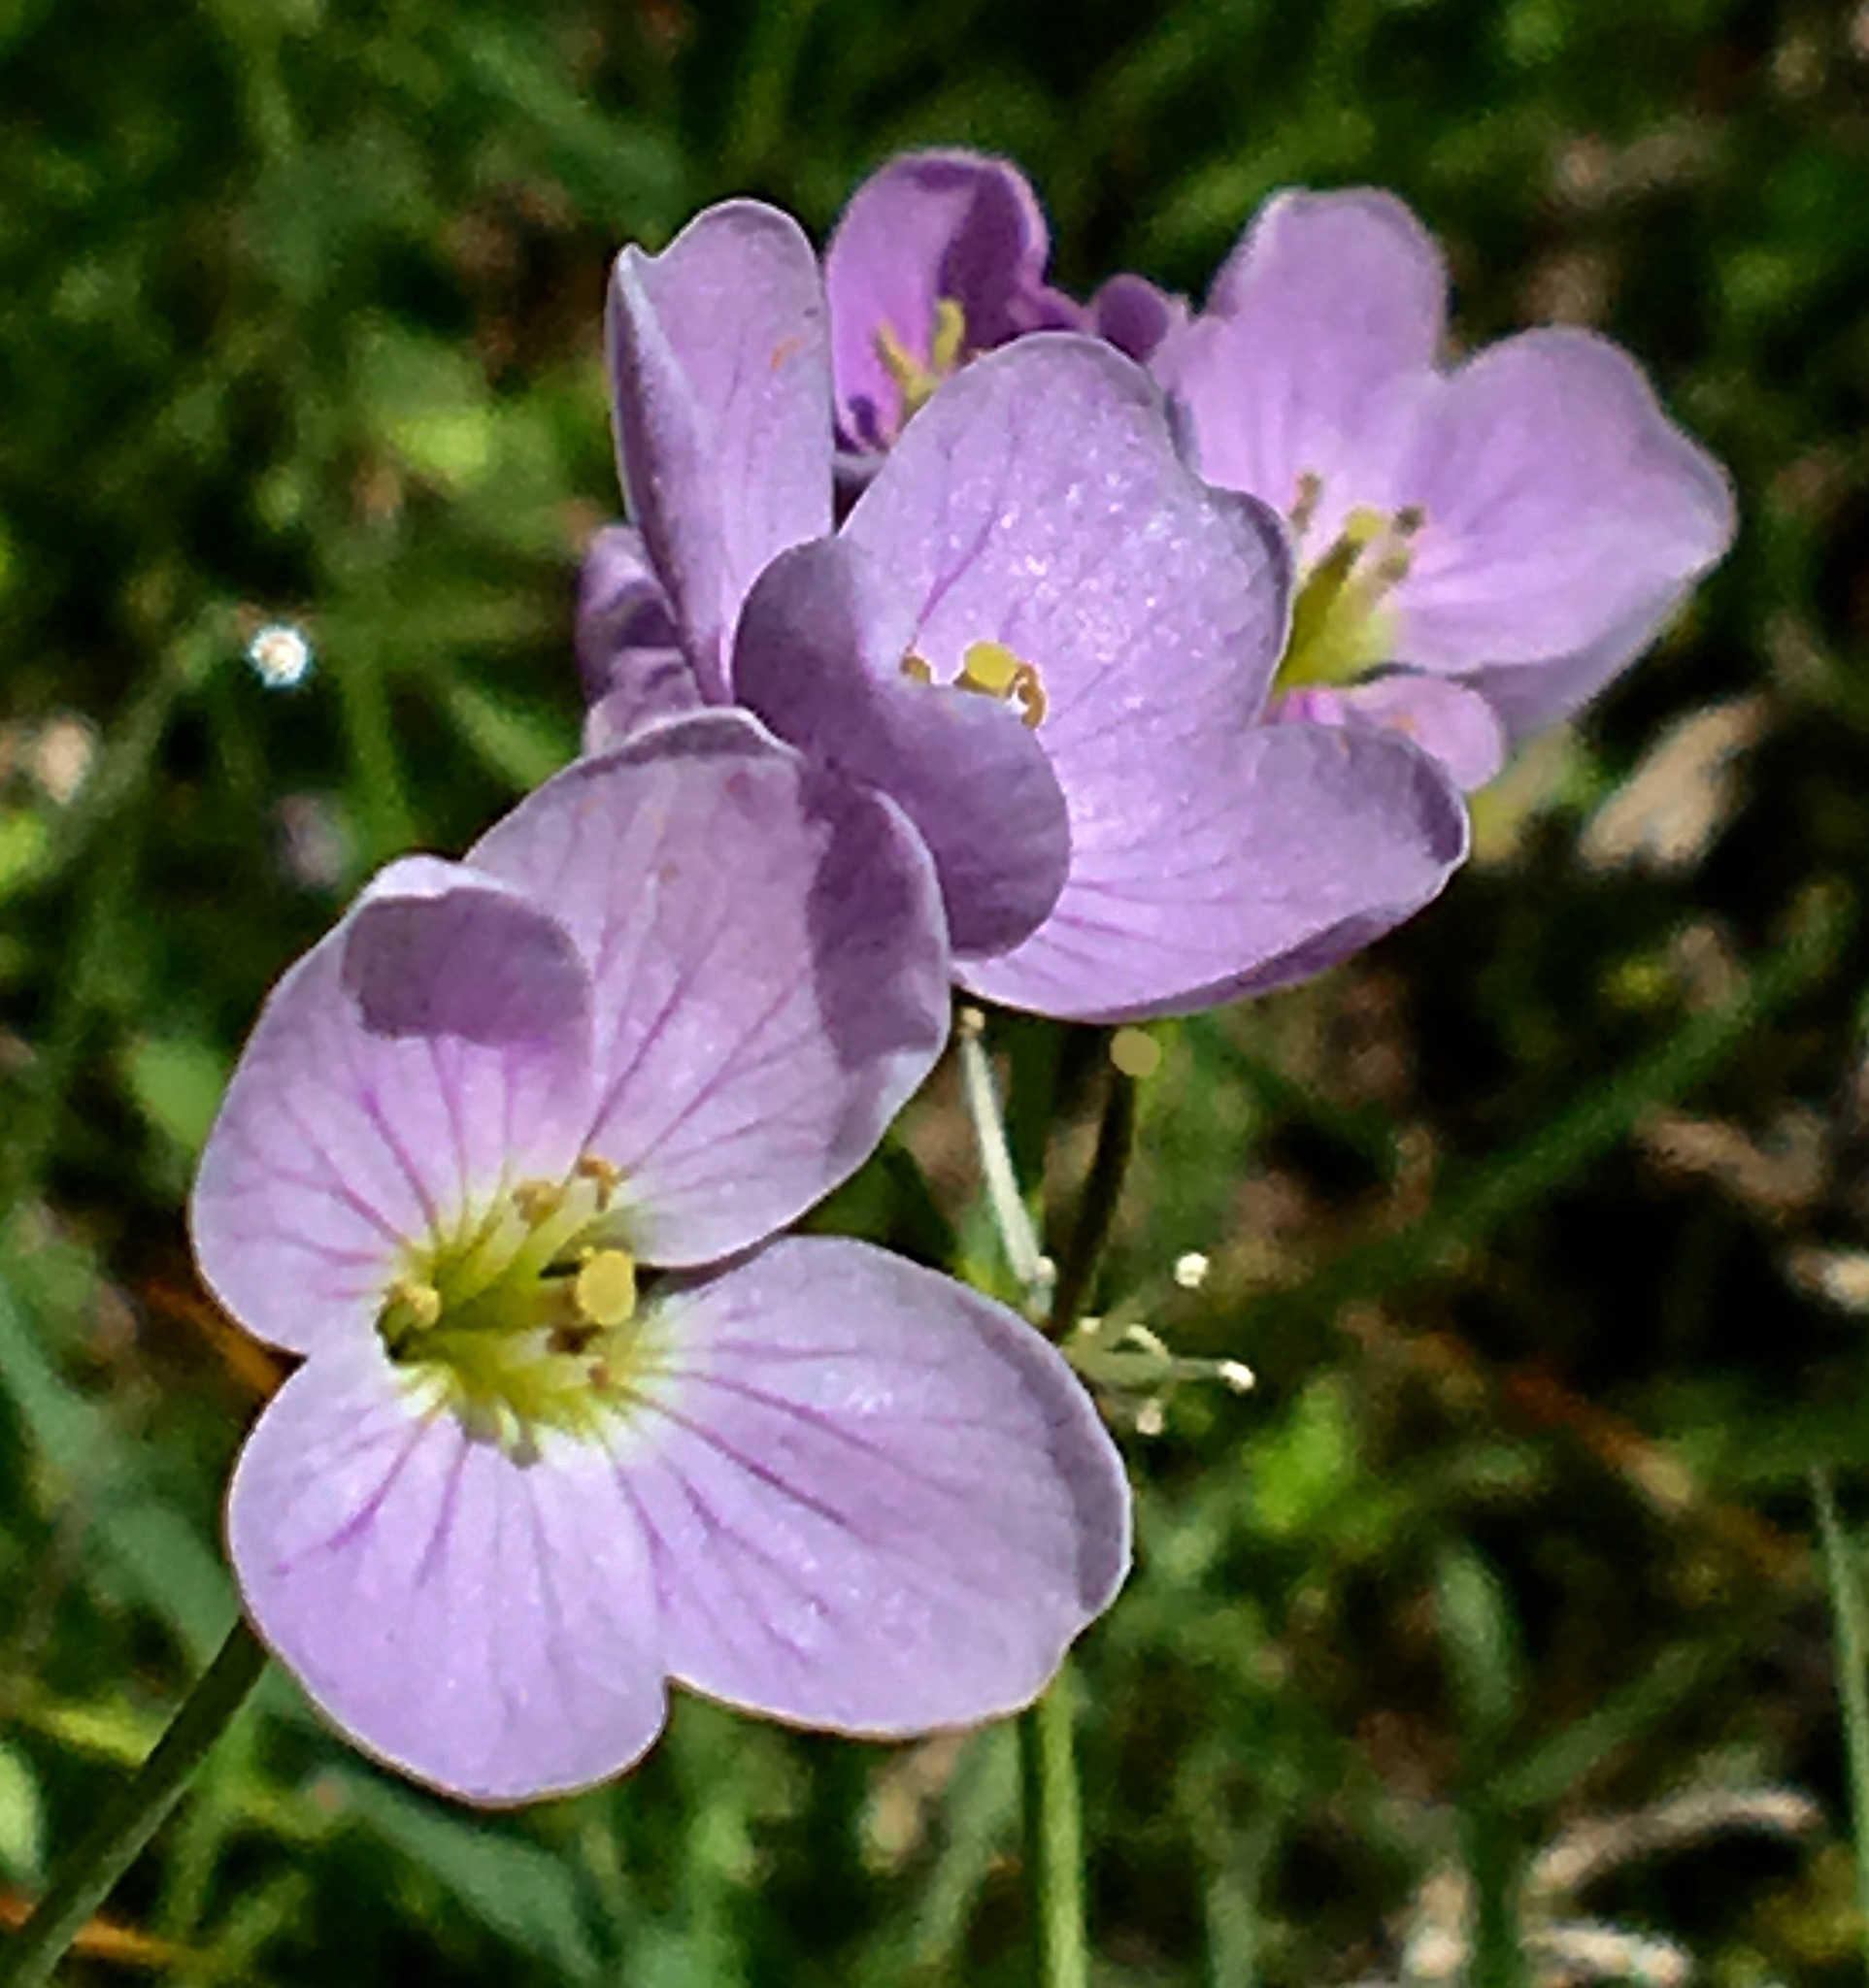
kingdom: Plantae
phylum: Tracheophyta
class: Magnoliopsida
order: Brassicales
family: Brassicaceae
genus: Cardamine
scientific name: Cardamine pratensis
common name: Cuckoo flower
